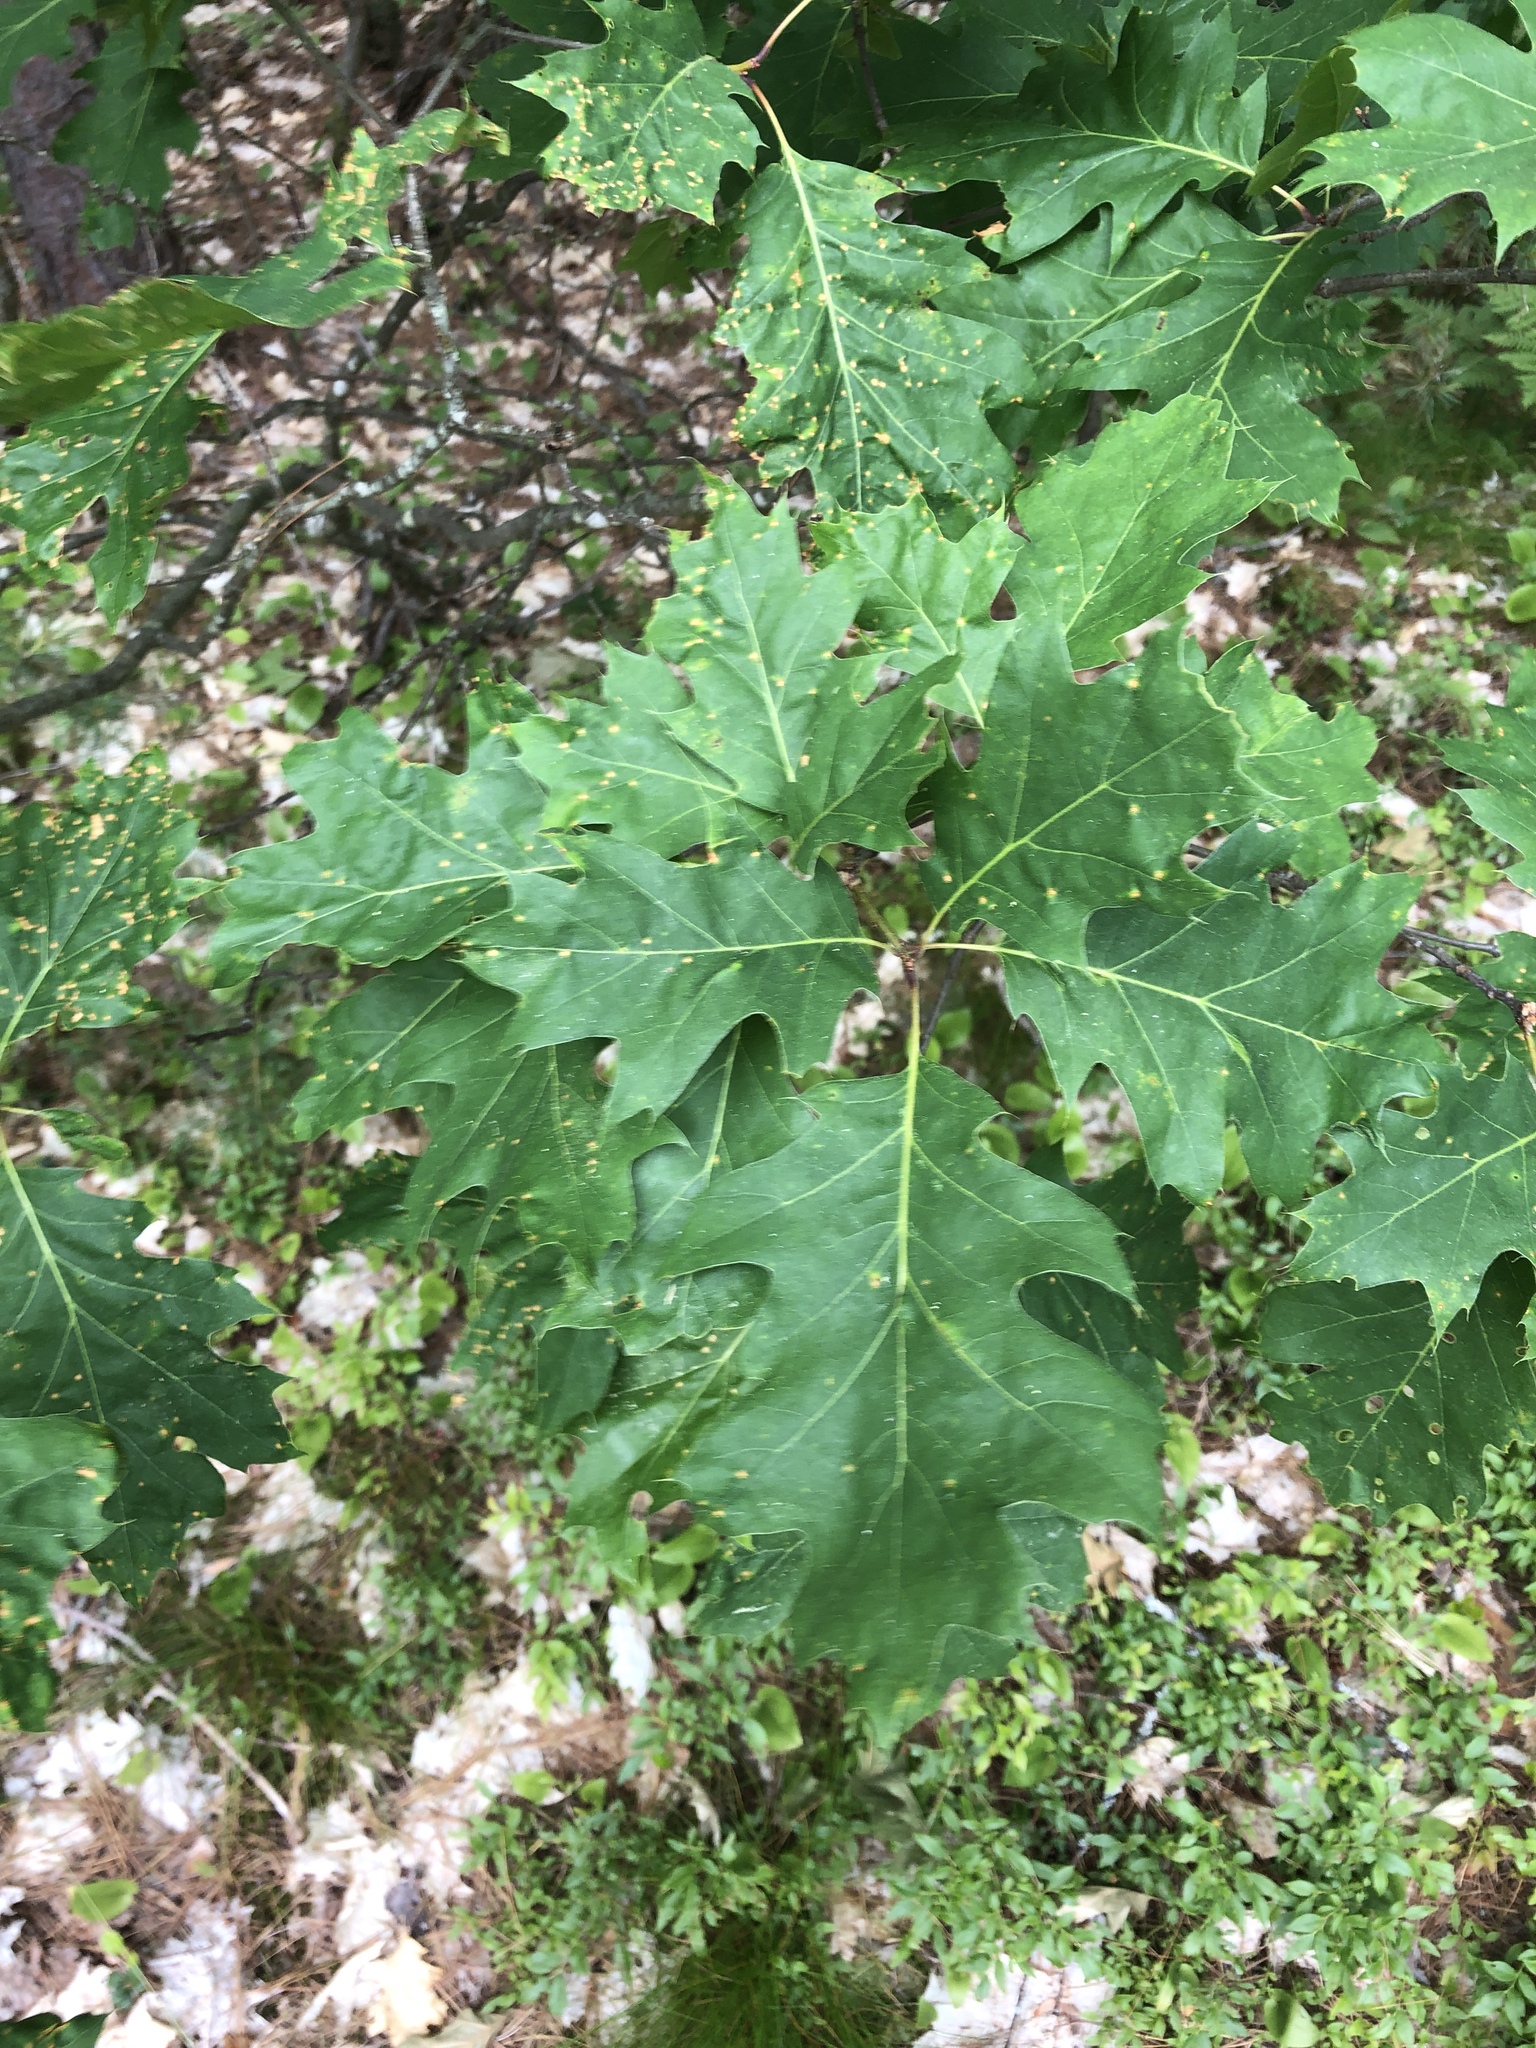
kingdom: Plantae
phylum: Tracheophyta
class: Magnoliopsida
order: Fagales
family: Fagaceae
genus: Quercus
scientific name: Quercus rubra
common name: Red oak
